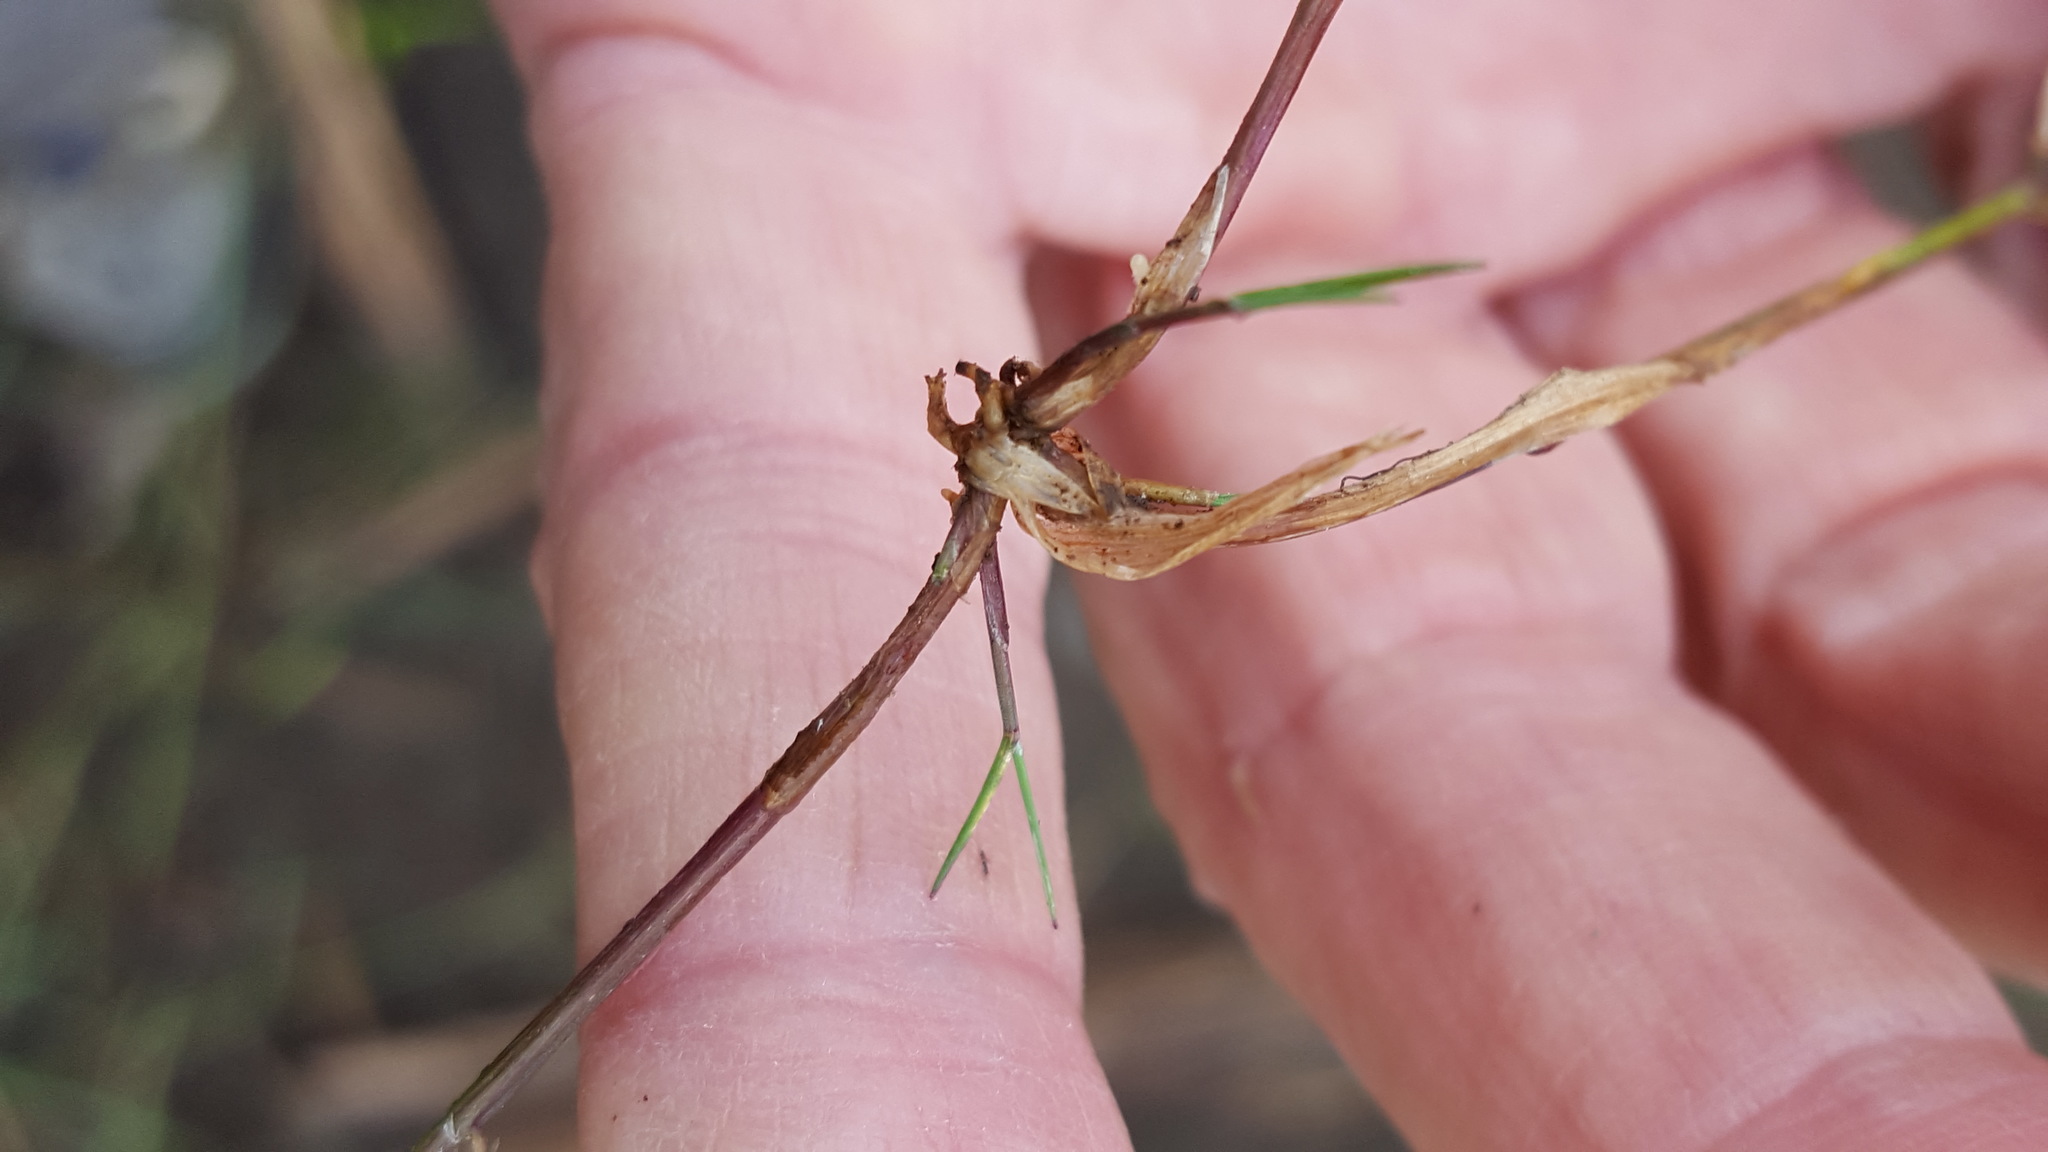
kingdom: Plantae
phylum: Tracheophyta
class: Liliopsida
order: Poales
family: Poaceae
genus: Torreyochloa
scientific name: Torreyochloa pallida
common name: Pale false mannagrass
